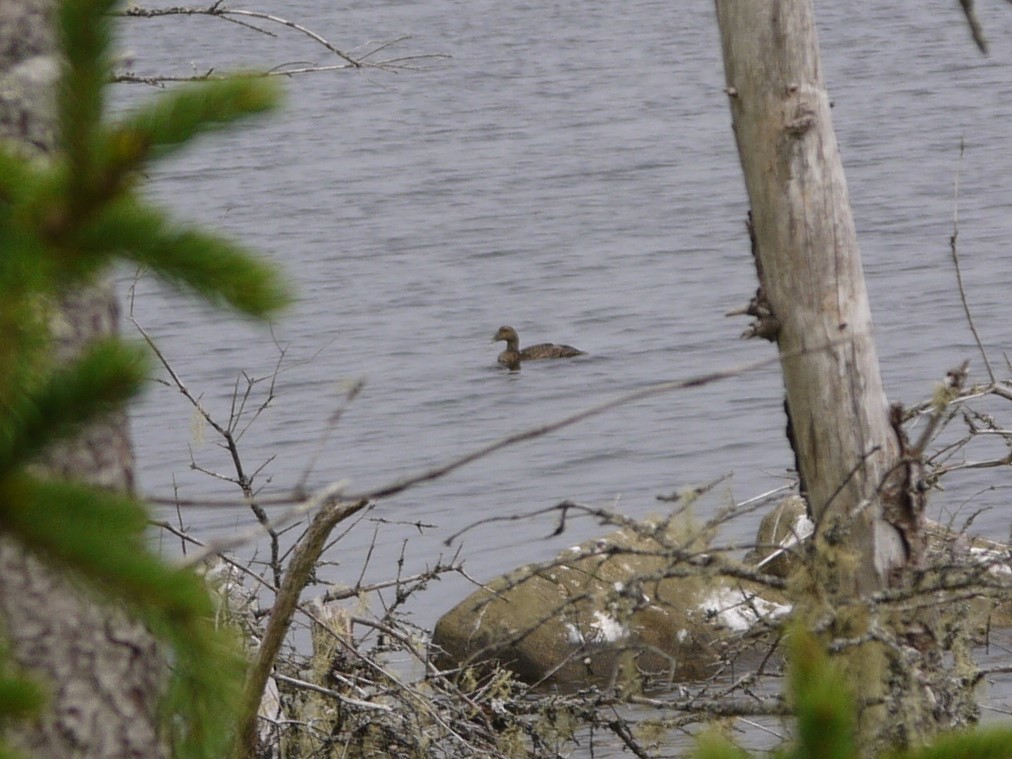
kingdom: Animalia
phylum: Chordata
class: Aves
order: Anseriformes
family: Anatidae
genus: Somateria
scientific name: Somateria mollissima
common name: Common eider
